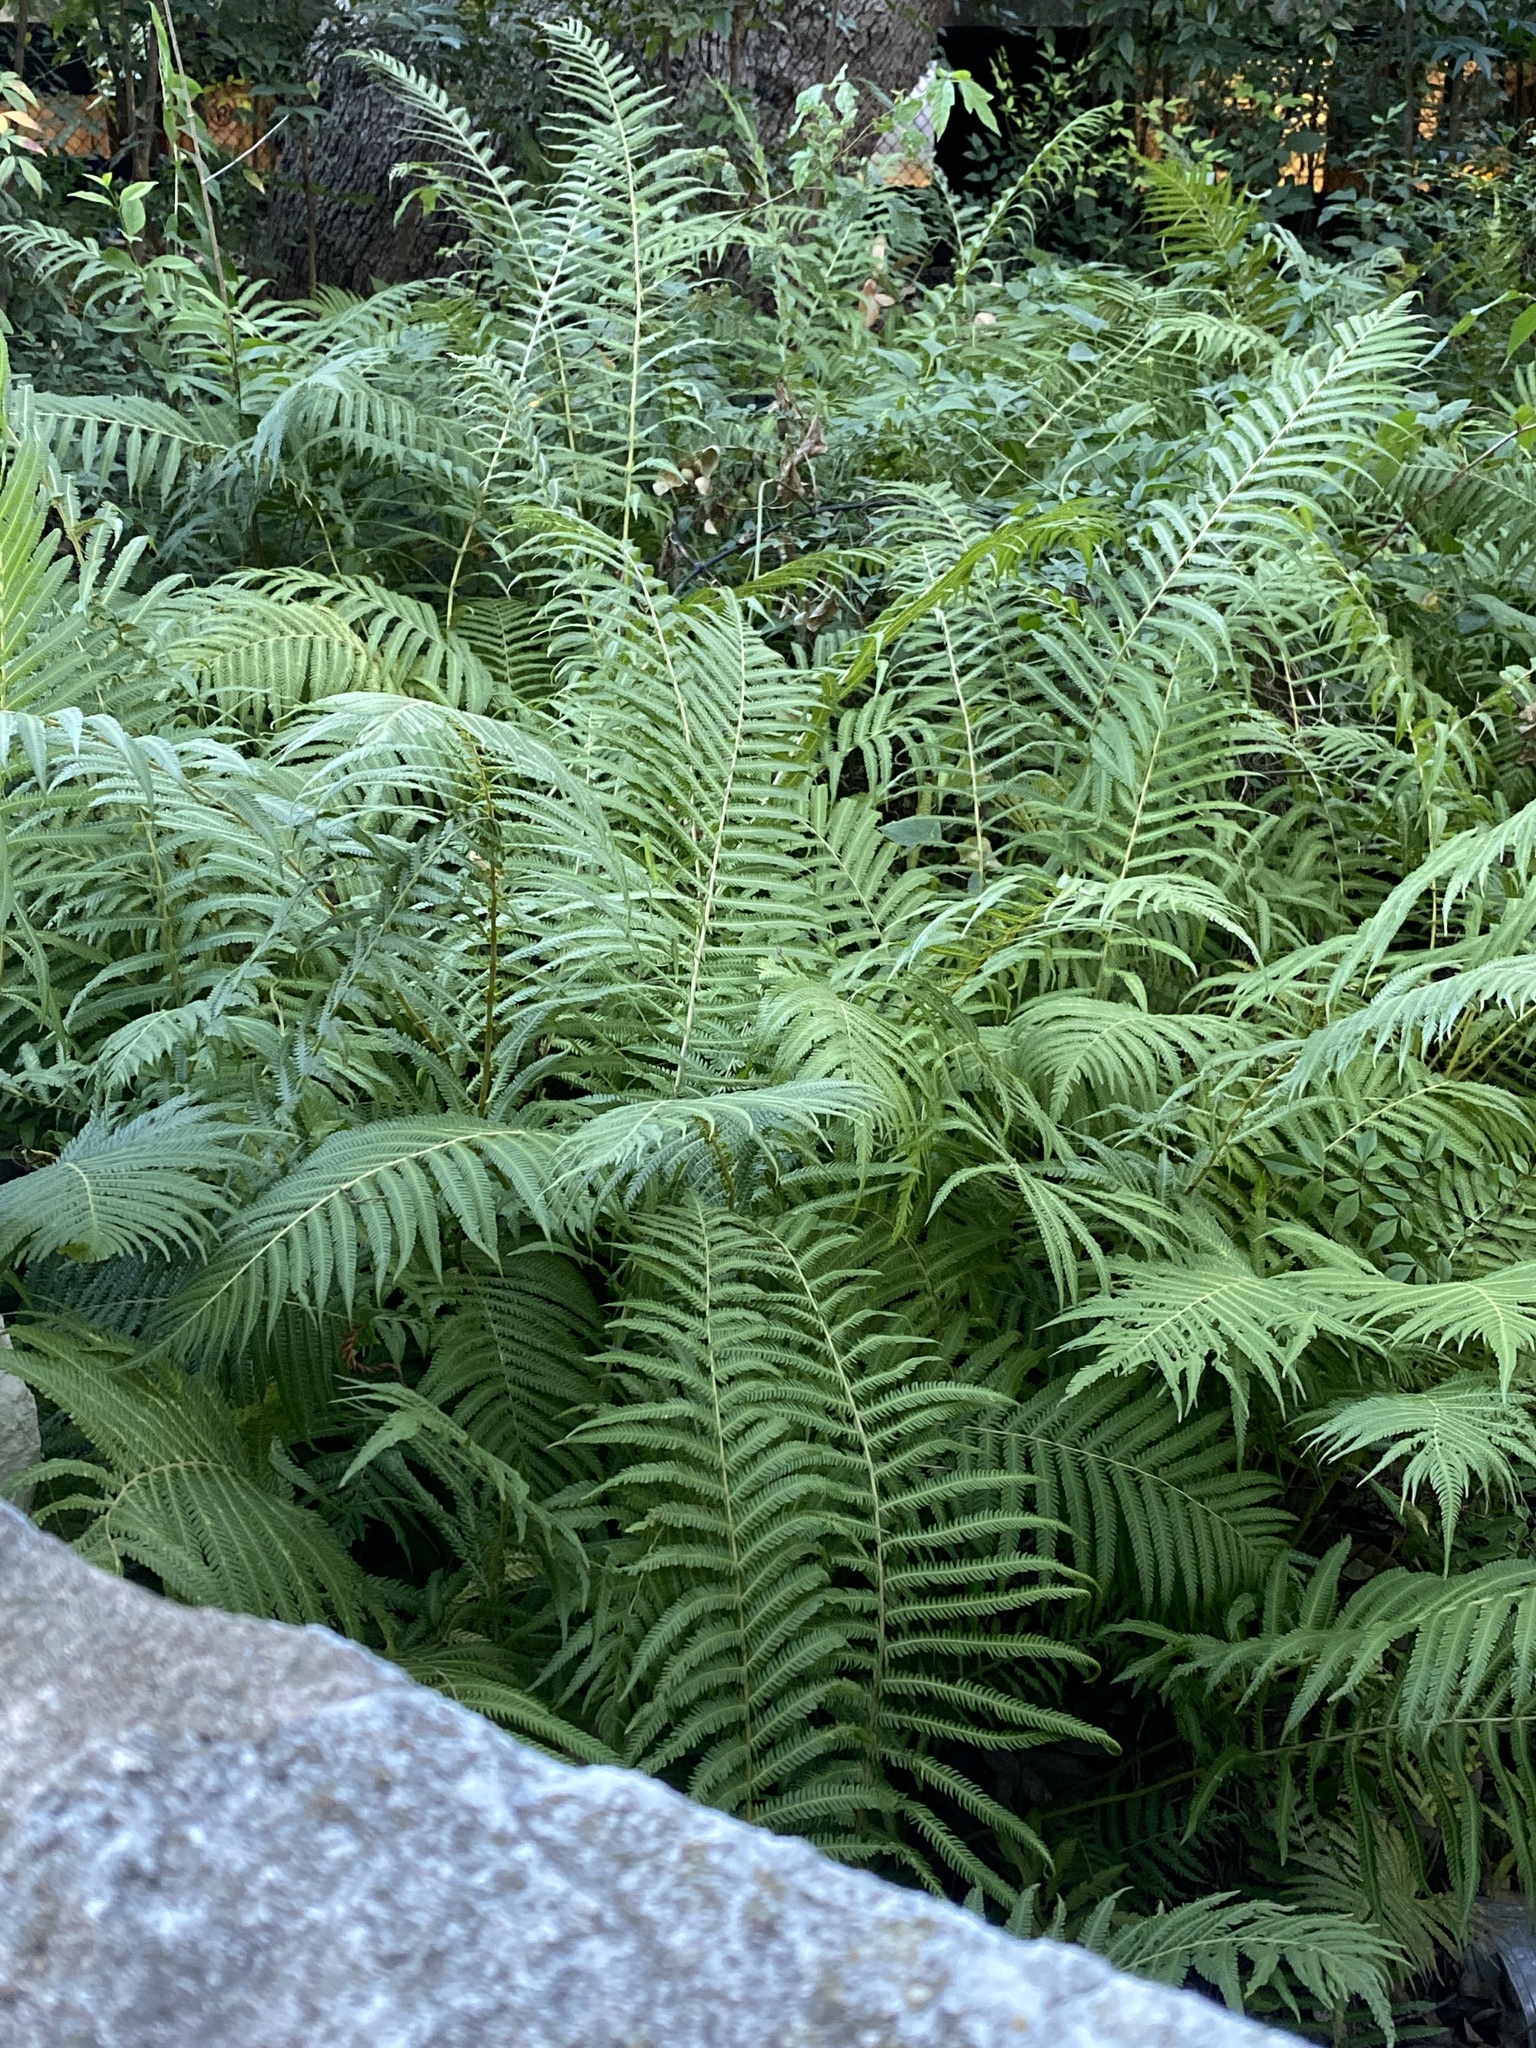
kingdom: Plantae
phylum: Tracheophyta
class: Polypodiopsida
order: Polypodiales
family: Thelypteridaceae
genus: Pelazoneuron
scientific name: Pelazoneuron ovatum
